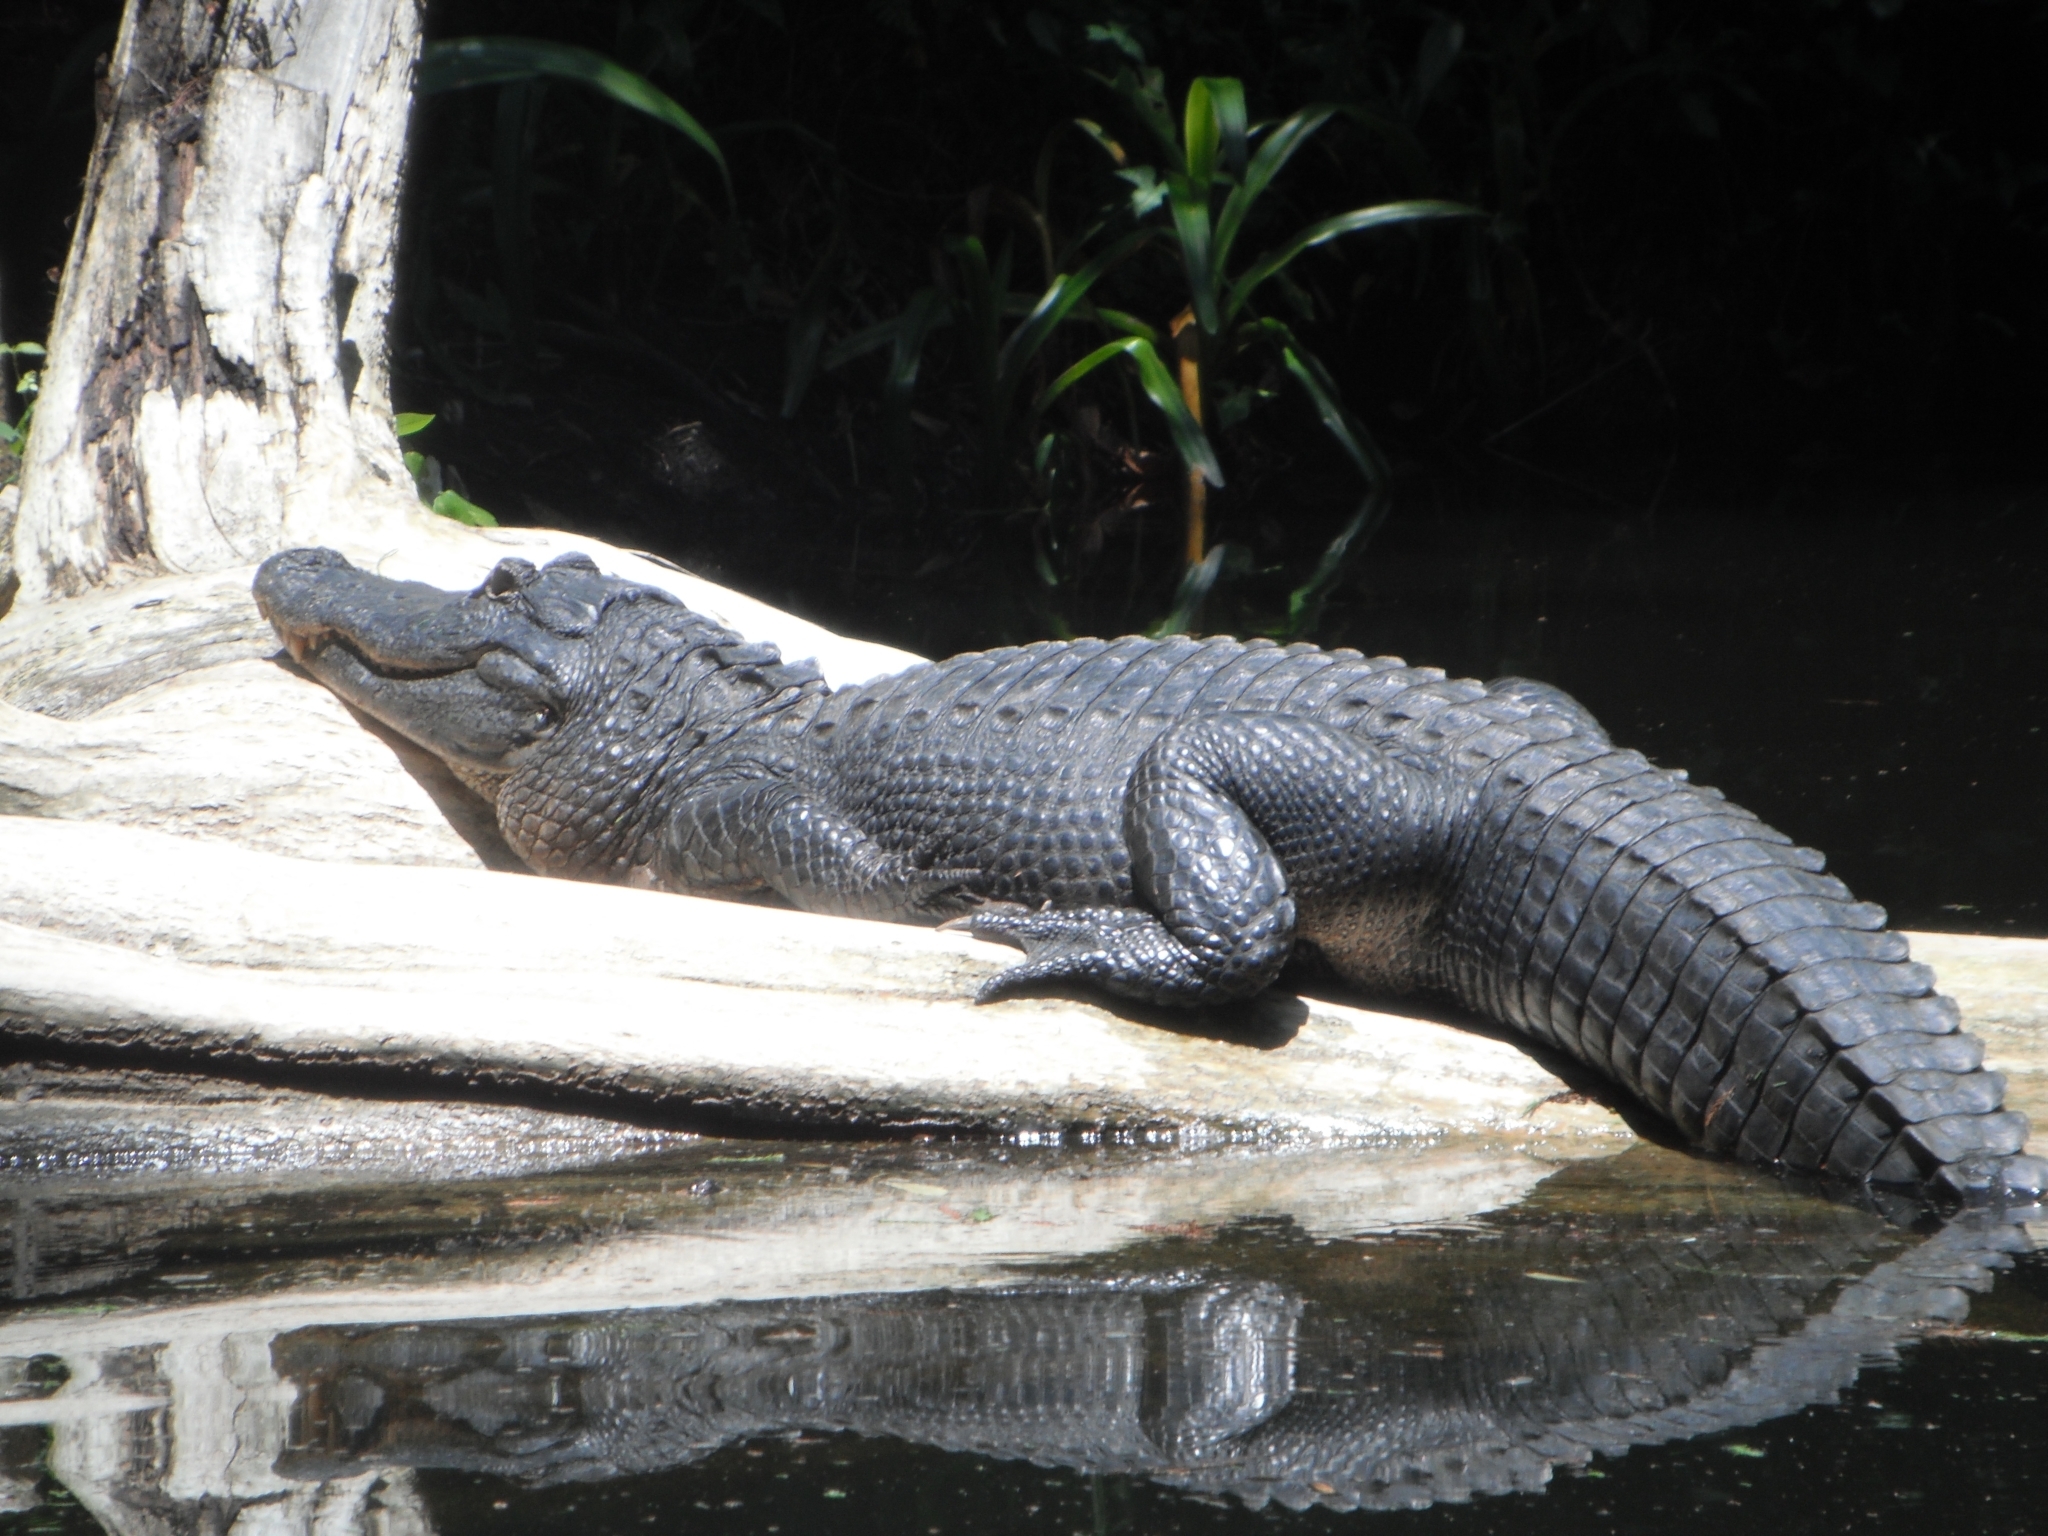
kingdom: Animalia
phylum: Chordata
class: Crocodylia
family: Alligatoridae
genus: Alligator
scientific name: Alligator mississippiensis
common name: American alligator
